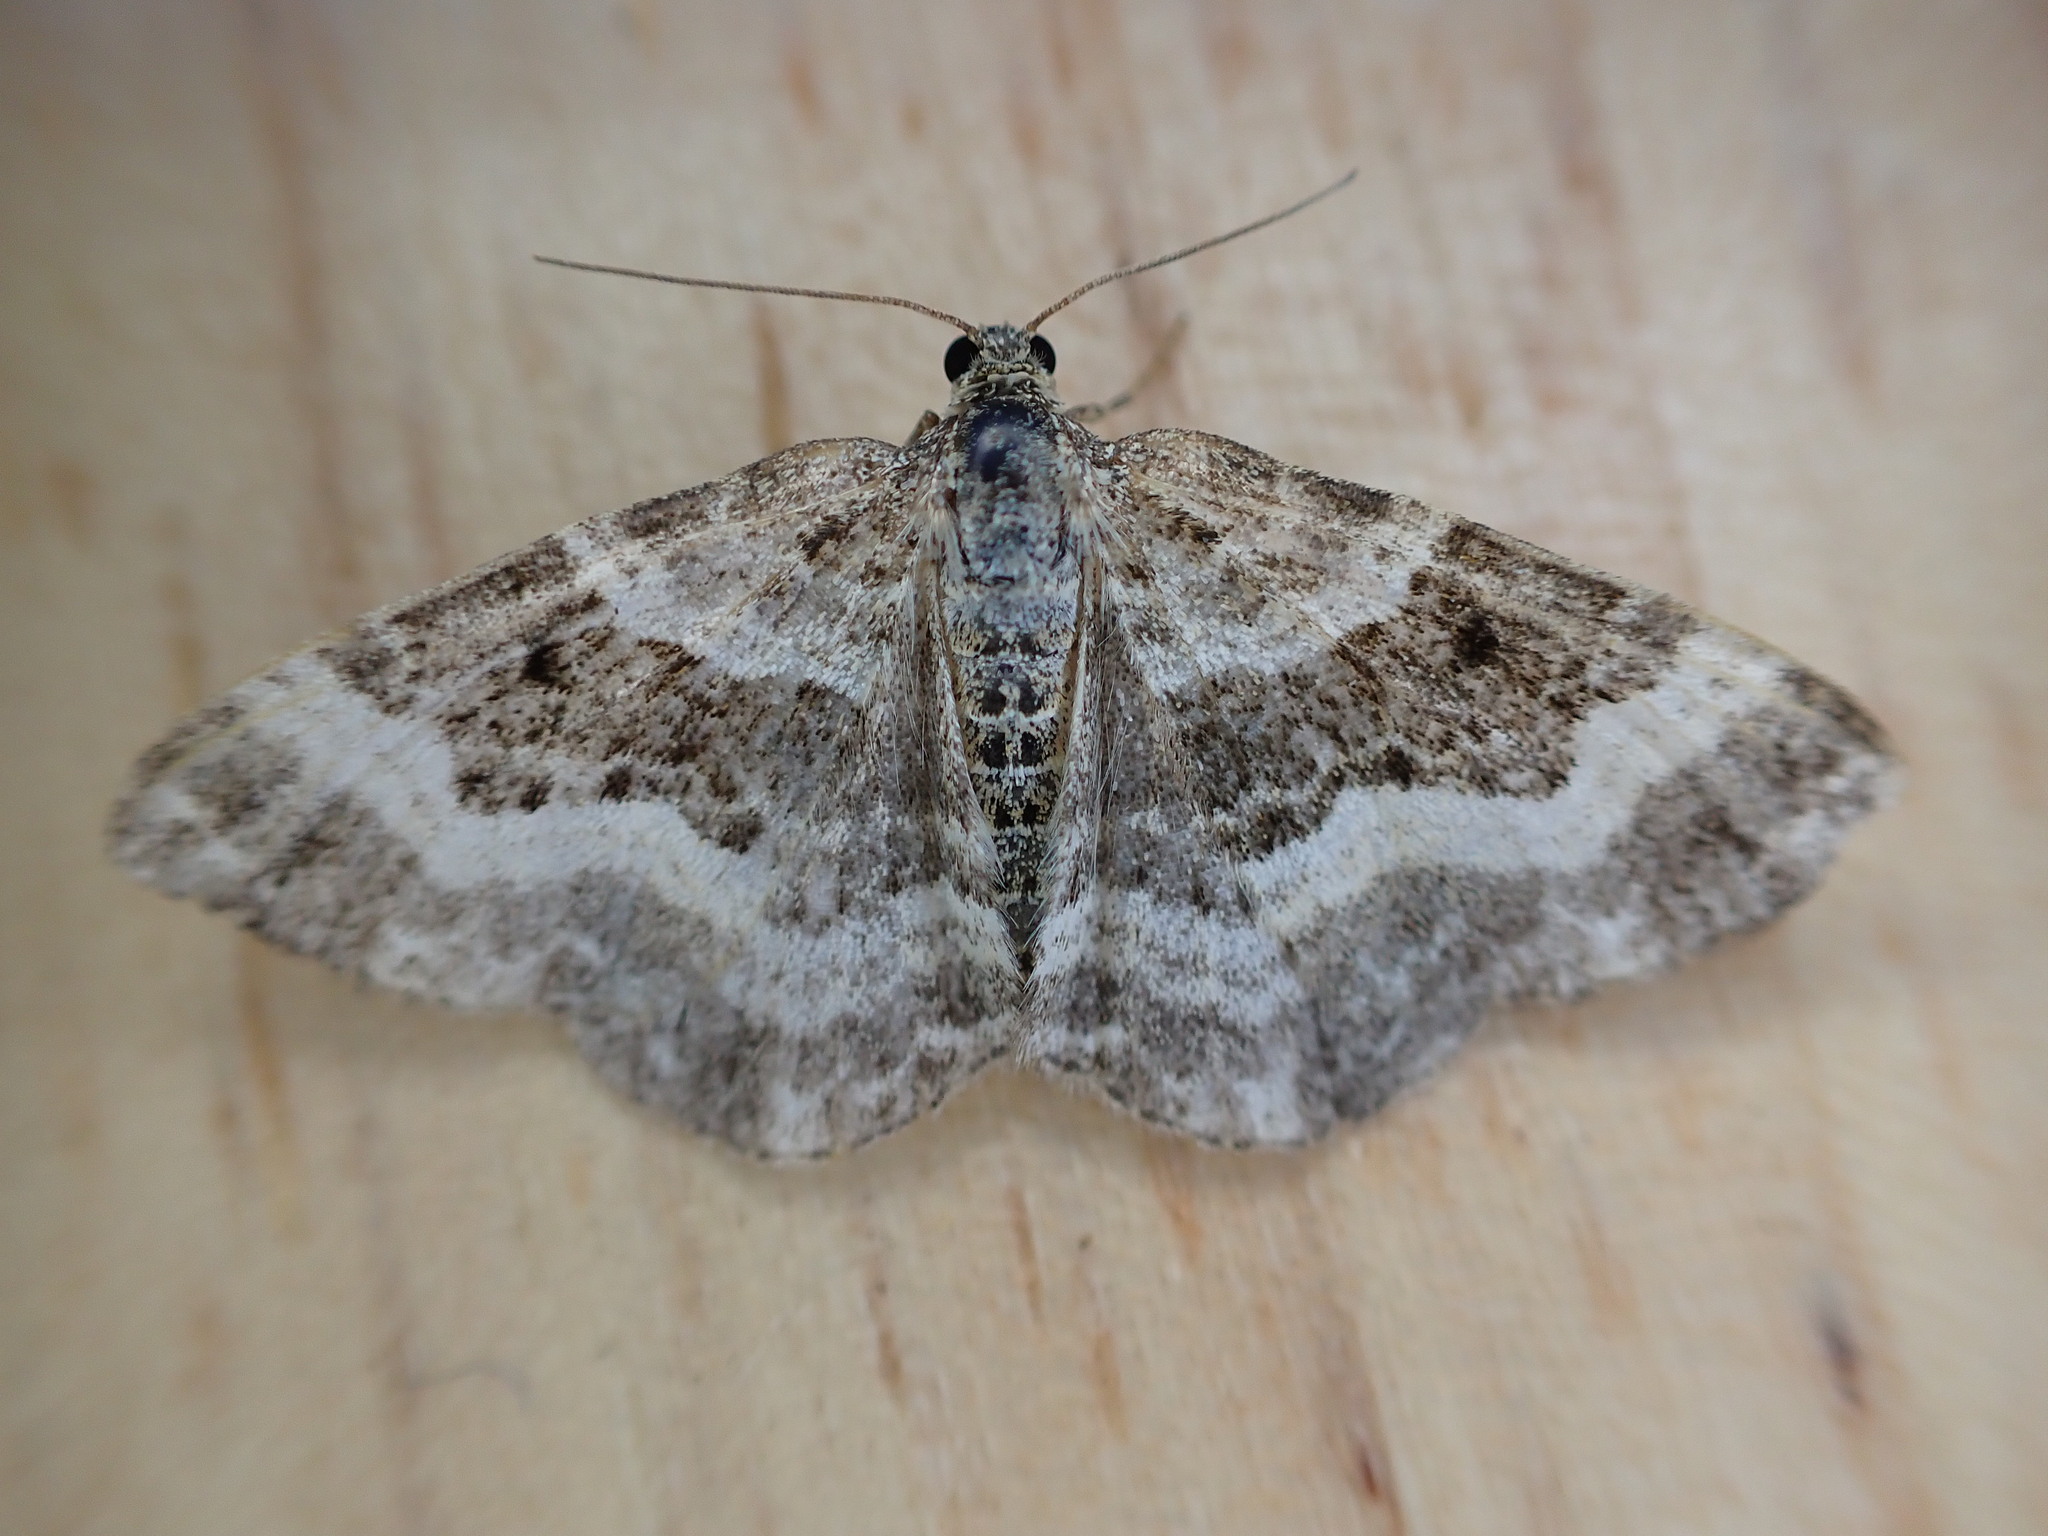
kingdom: Animalia
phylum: Arthropoda
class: Insecta
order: Lepidoptera
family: Geometridae
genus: Epirrhoe
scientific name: Epirrhoe alternata
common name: Common carpet
